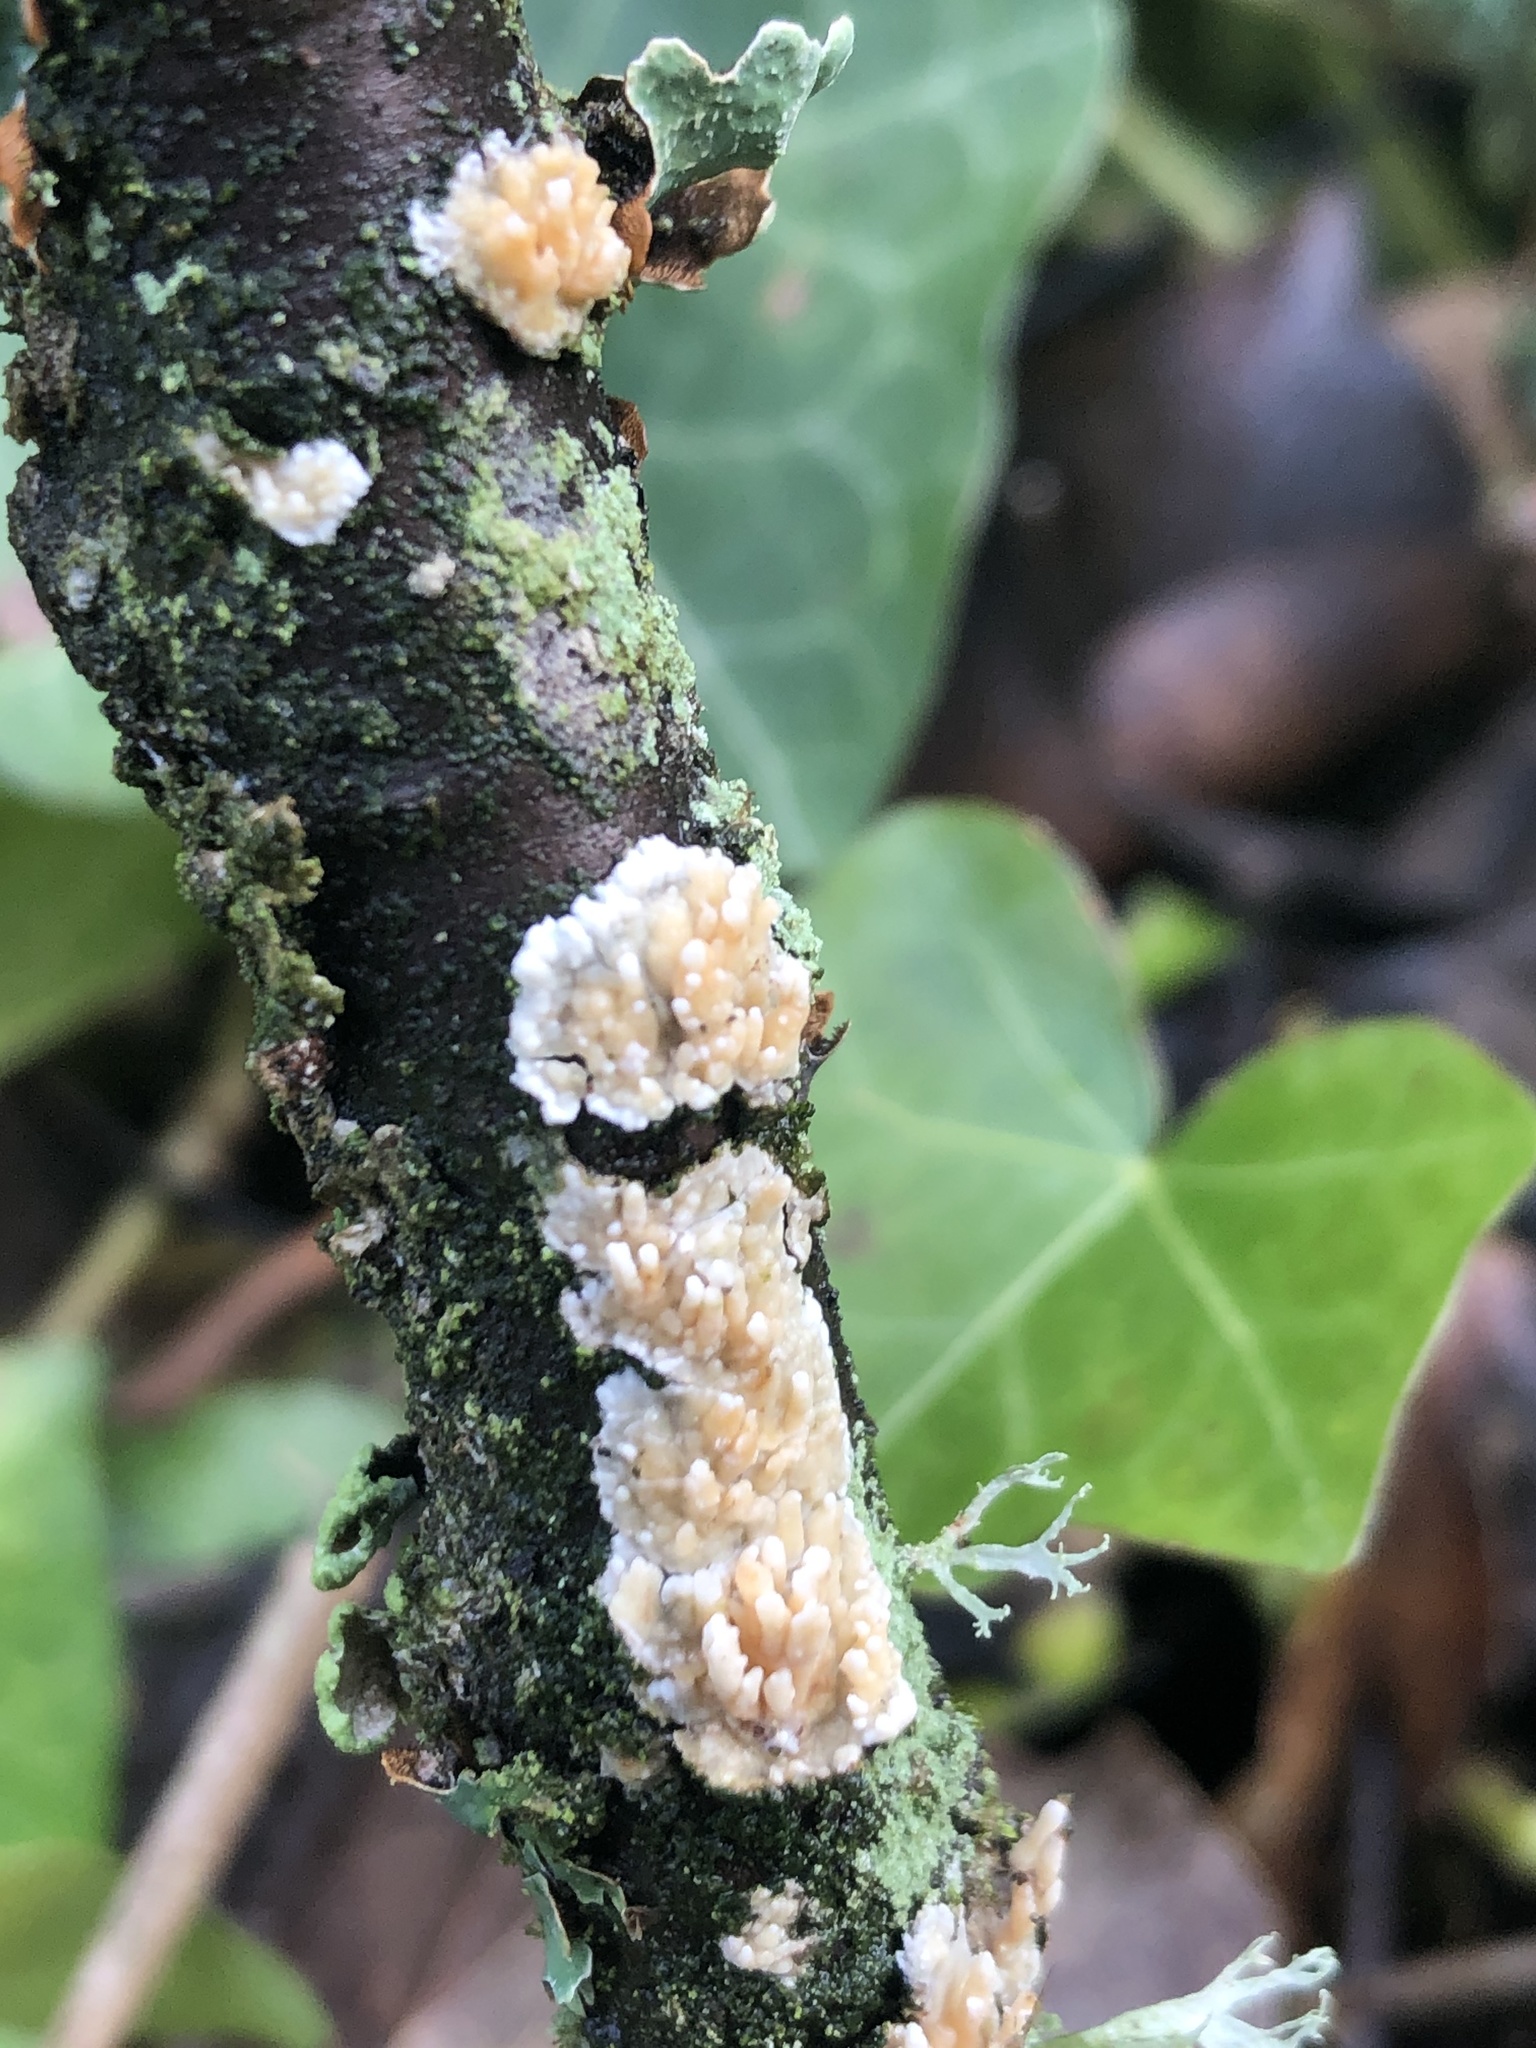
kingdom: Fungi
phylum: Basidiomycota
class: Agaricomycetes
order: Hymenochaetales
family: Schizoporaceae
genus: Xylodon
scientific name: Xylodon radula
